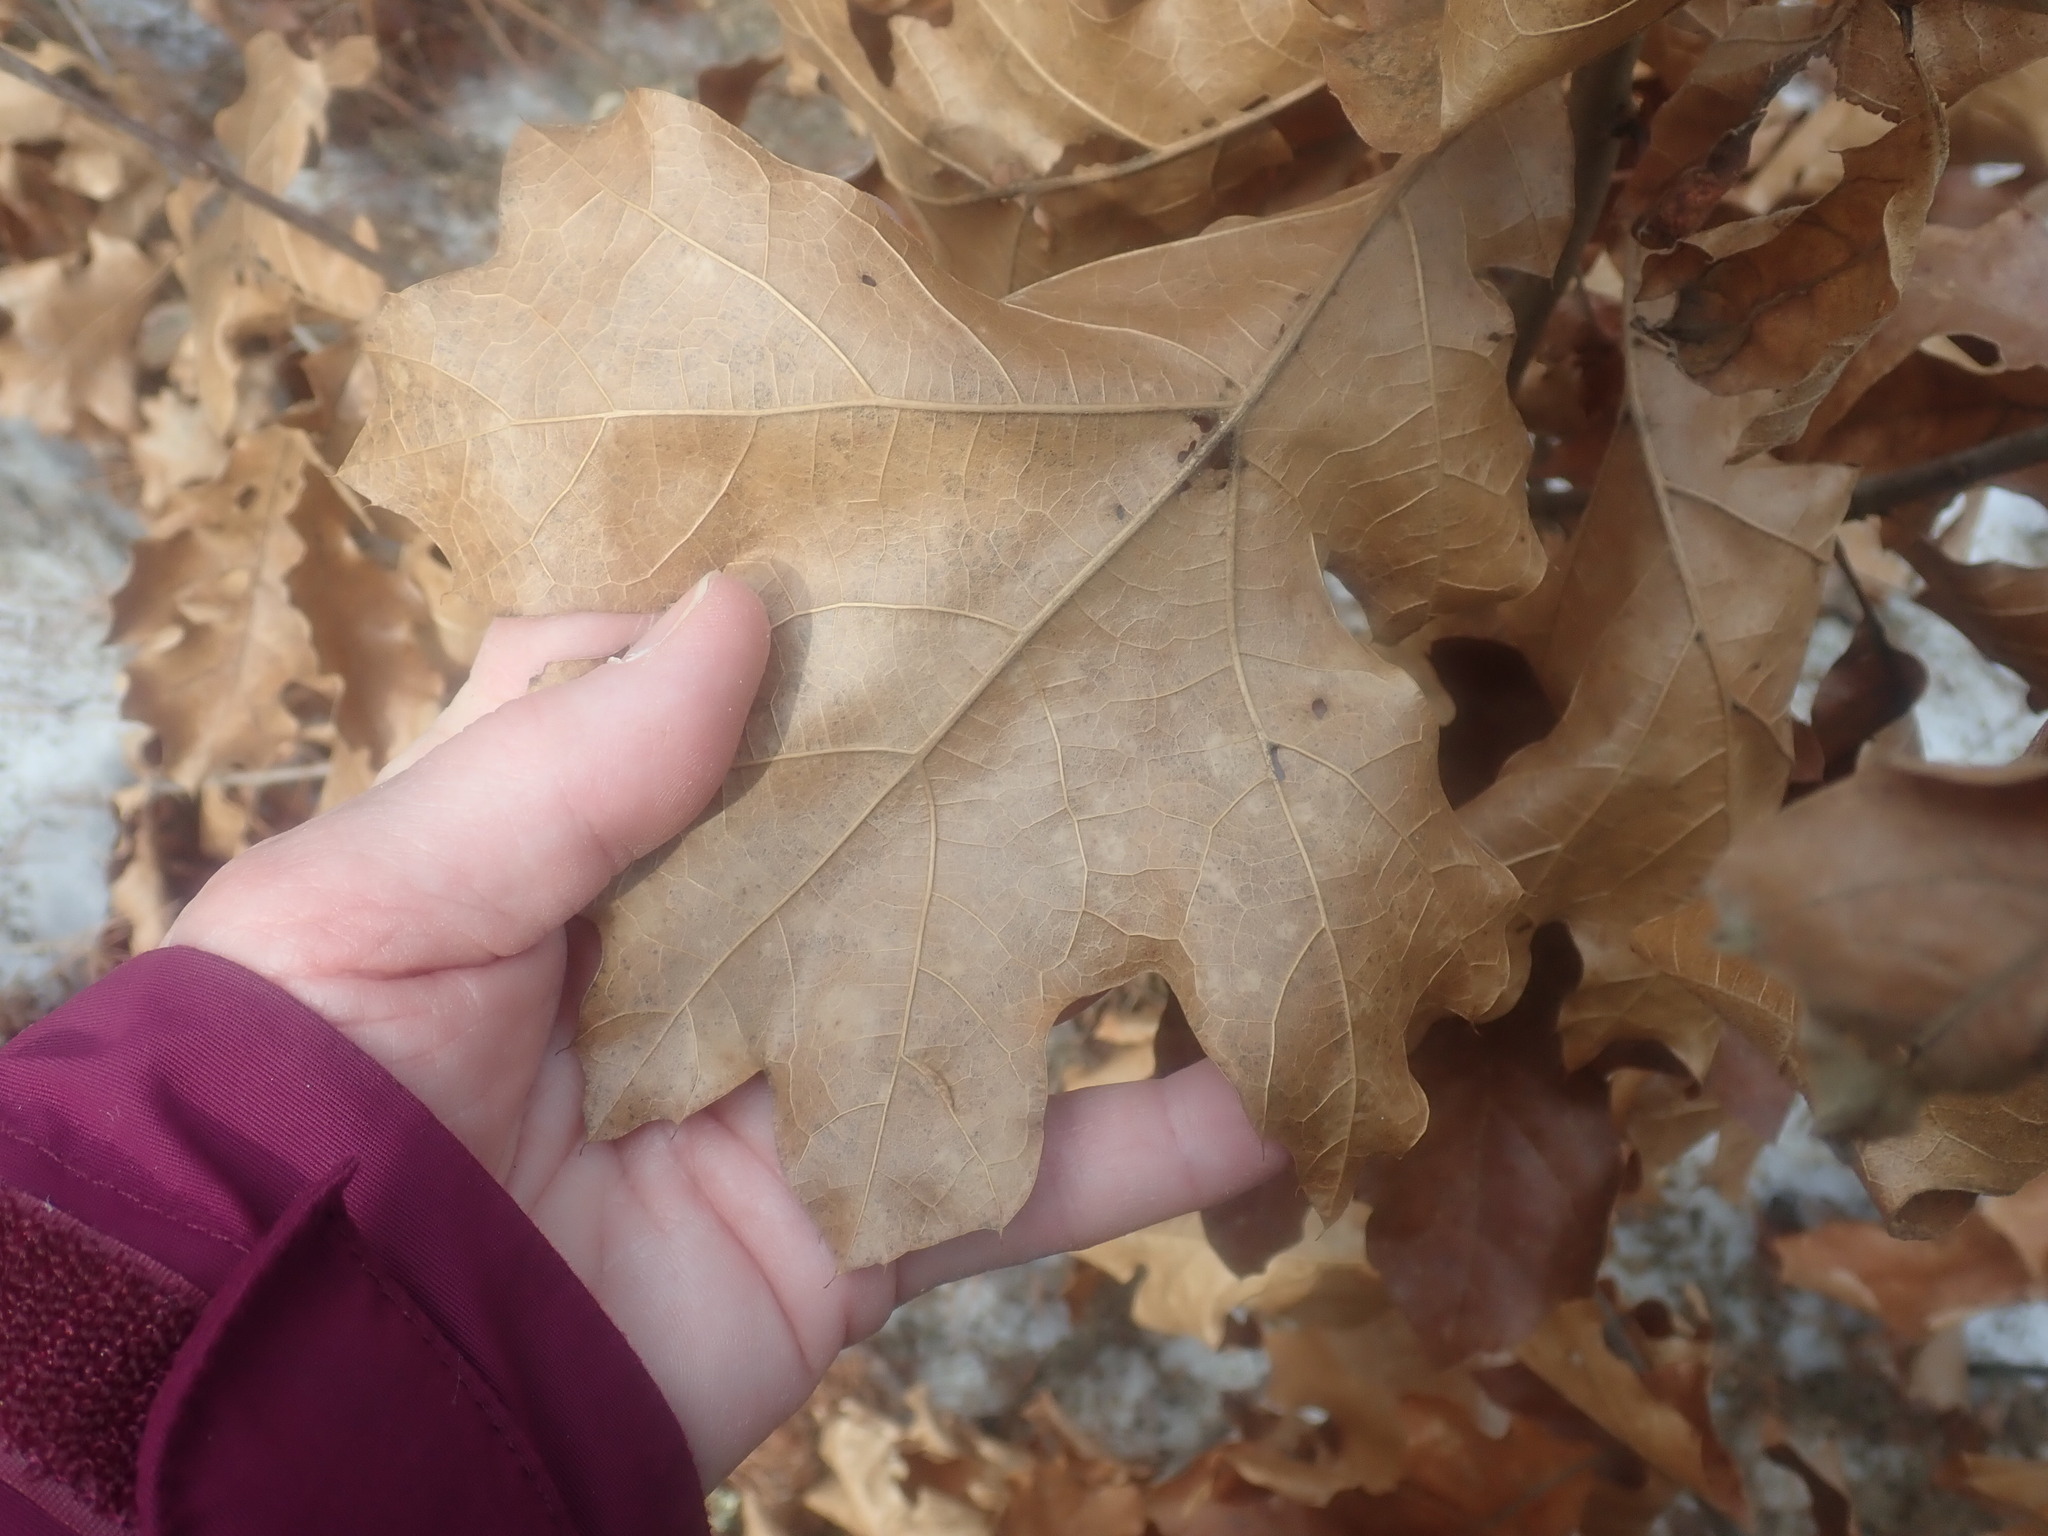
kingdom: Plantae
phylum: Tracheophyta
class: Magnoliopsida
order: Fagales
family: Fagaceae
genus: Quercus
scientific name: Quercus velutina
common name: Black oak
